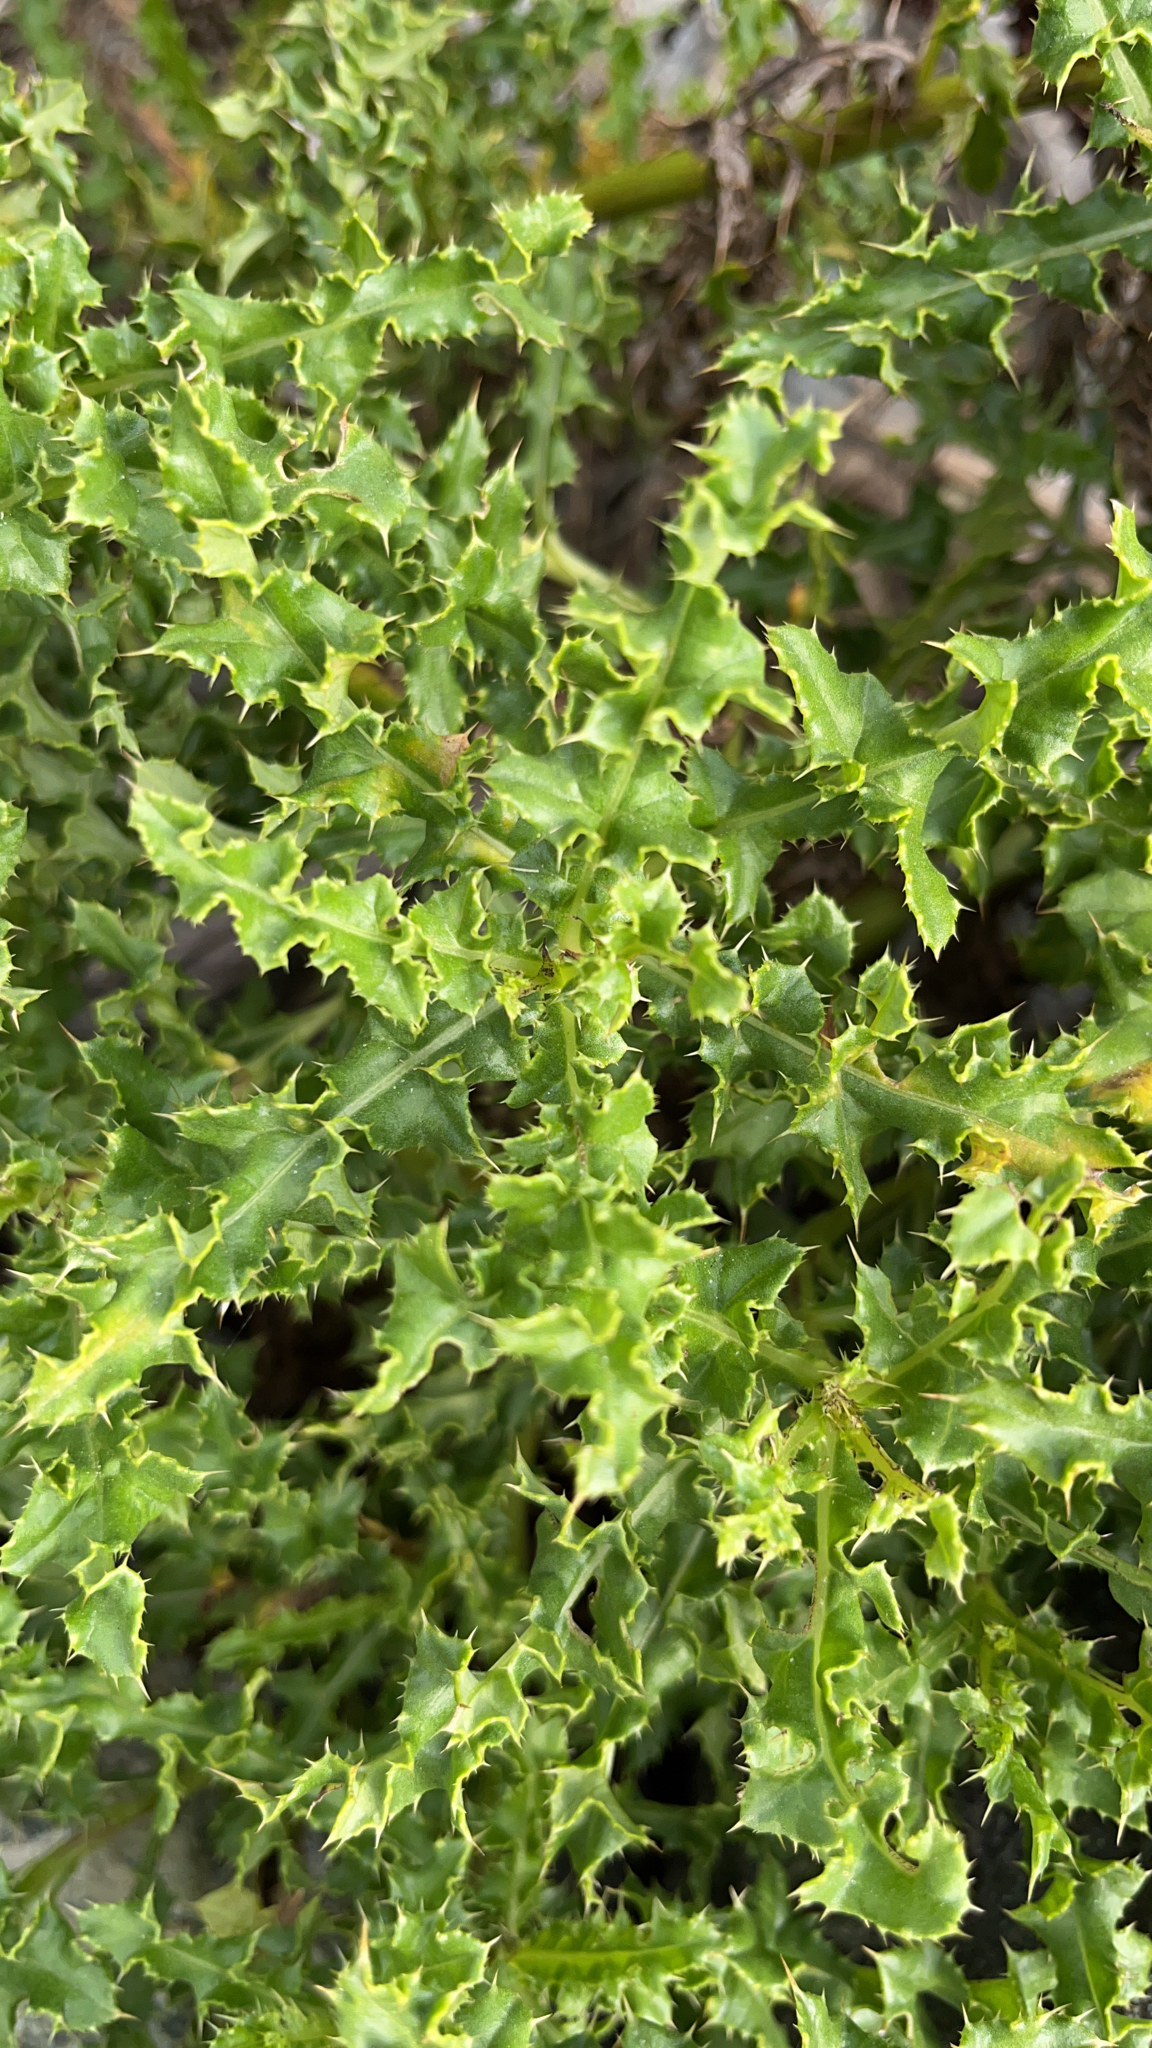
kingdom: Plantae
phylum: Tracheophyta
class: Magnoliopsida
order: Asterales
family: Asteraceae
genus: Cirsium
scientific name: Cirsium arvense
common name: Creeping thistle
